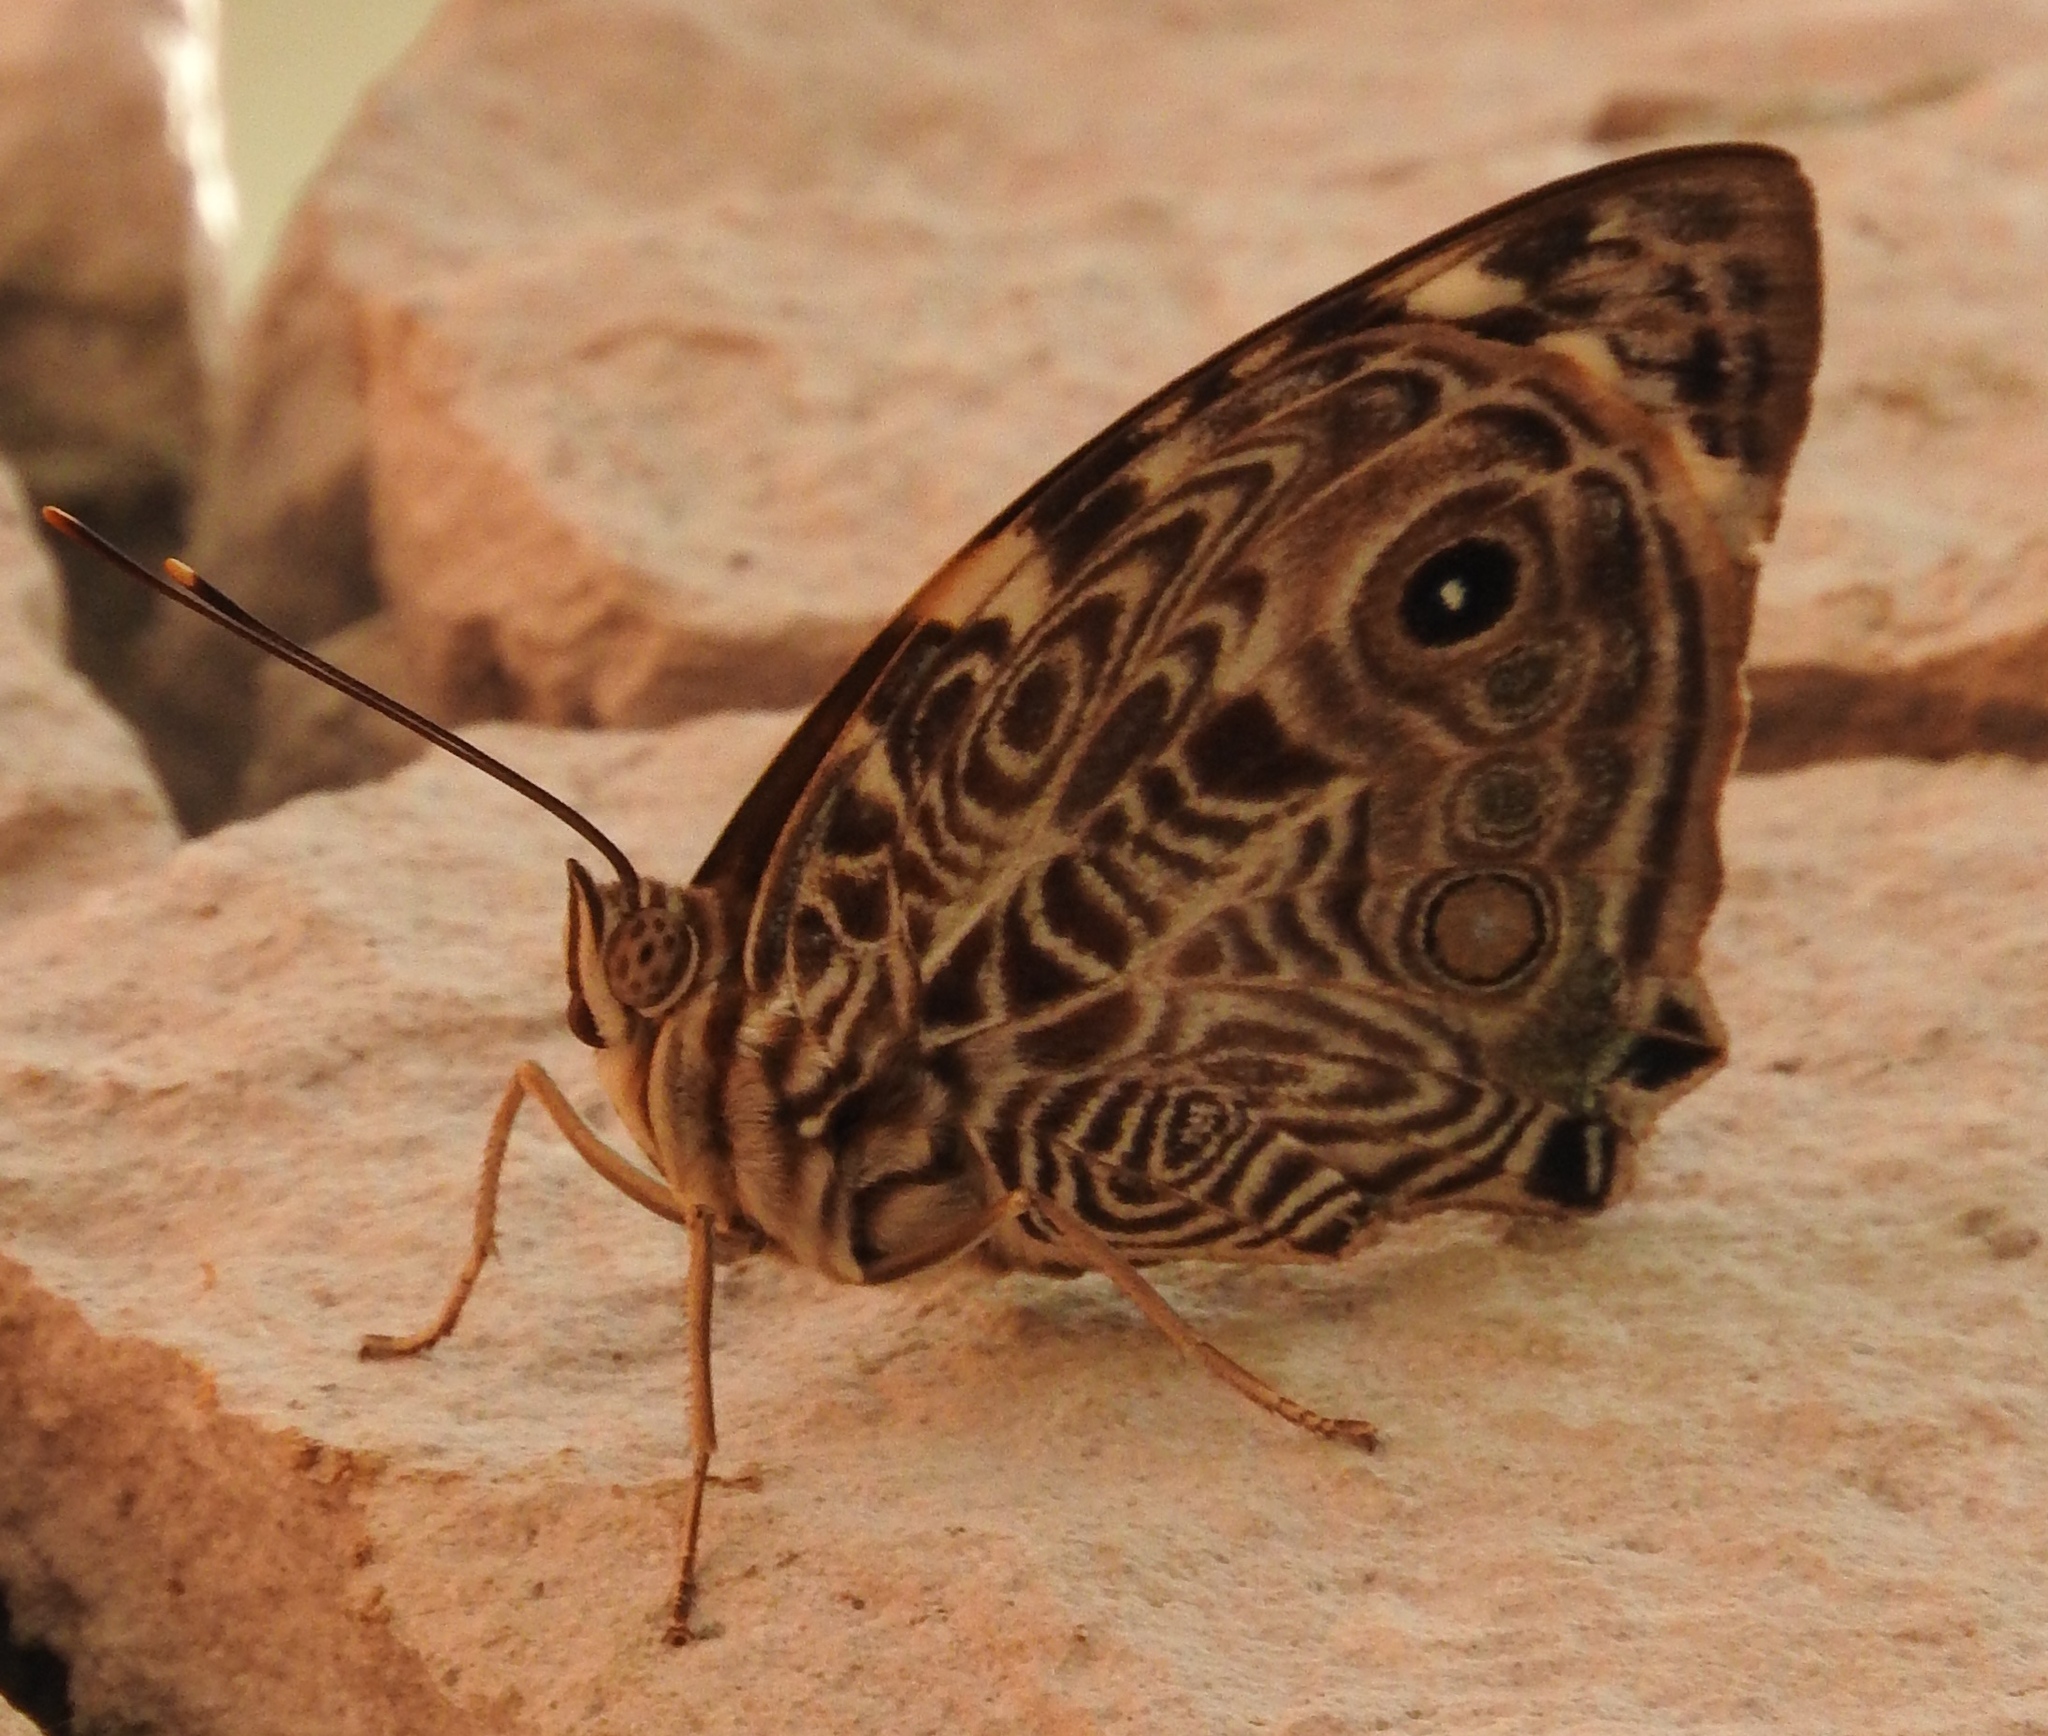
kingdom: Animalia
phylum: Arthropoda
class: Insecta
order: Lepidoptera
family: Nymphalidae
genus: Smyrna
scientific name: Smyrna blomfildia
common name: Blomfild's beauty
